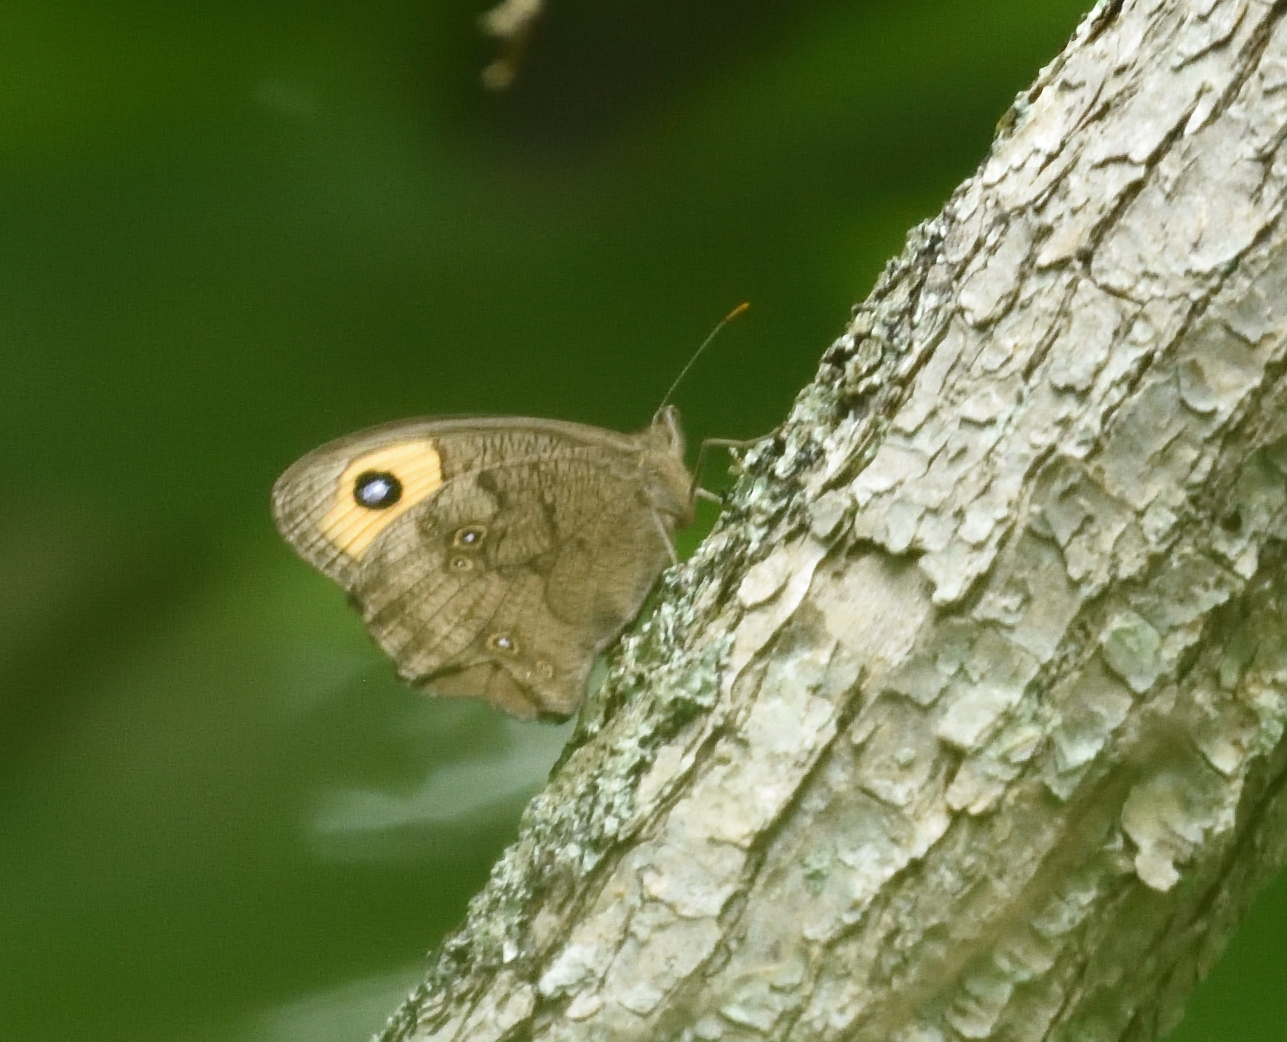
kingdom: Animalia
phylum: Arthropoda
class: Insecta
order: Lepidoptera
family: Nymphalidae
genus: Cercyonis
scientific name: Cercyonis pegala
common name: Common wood-nymph
